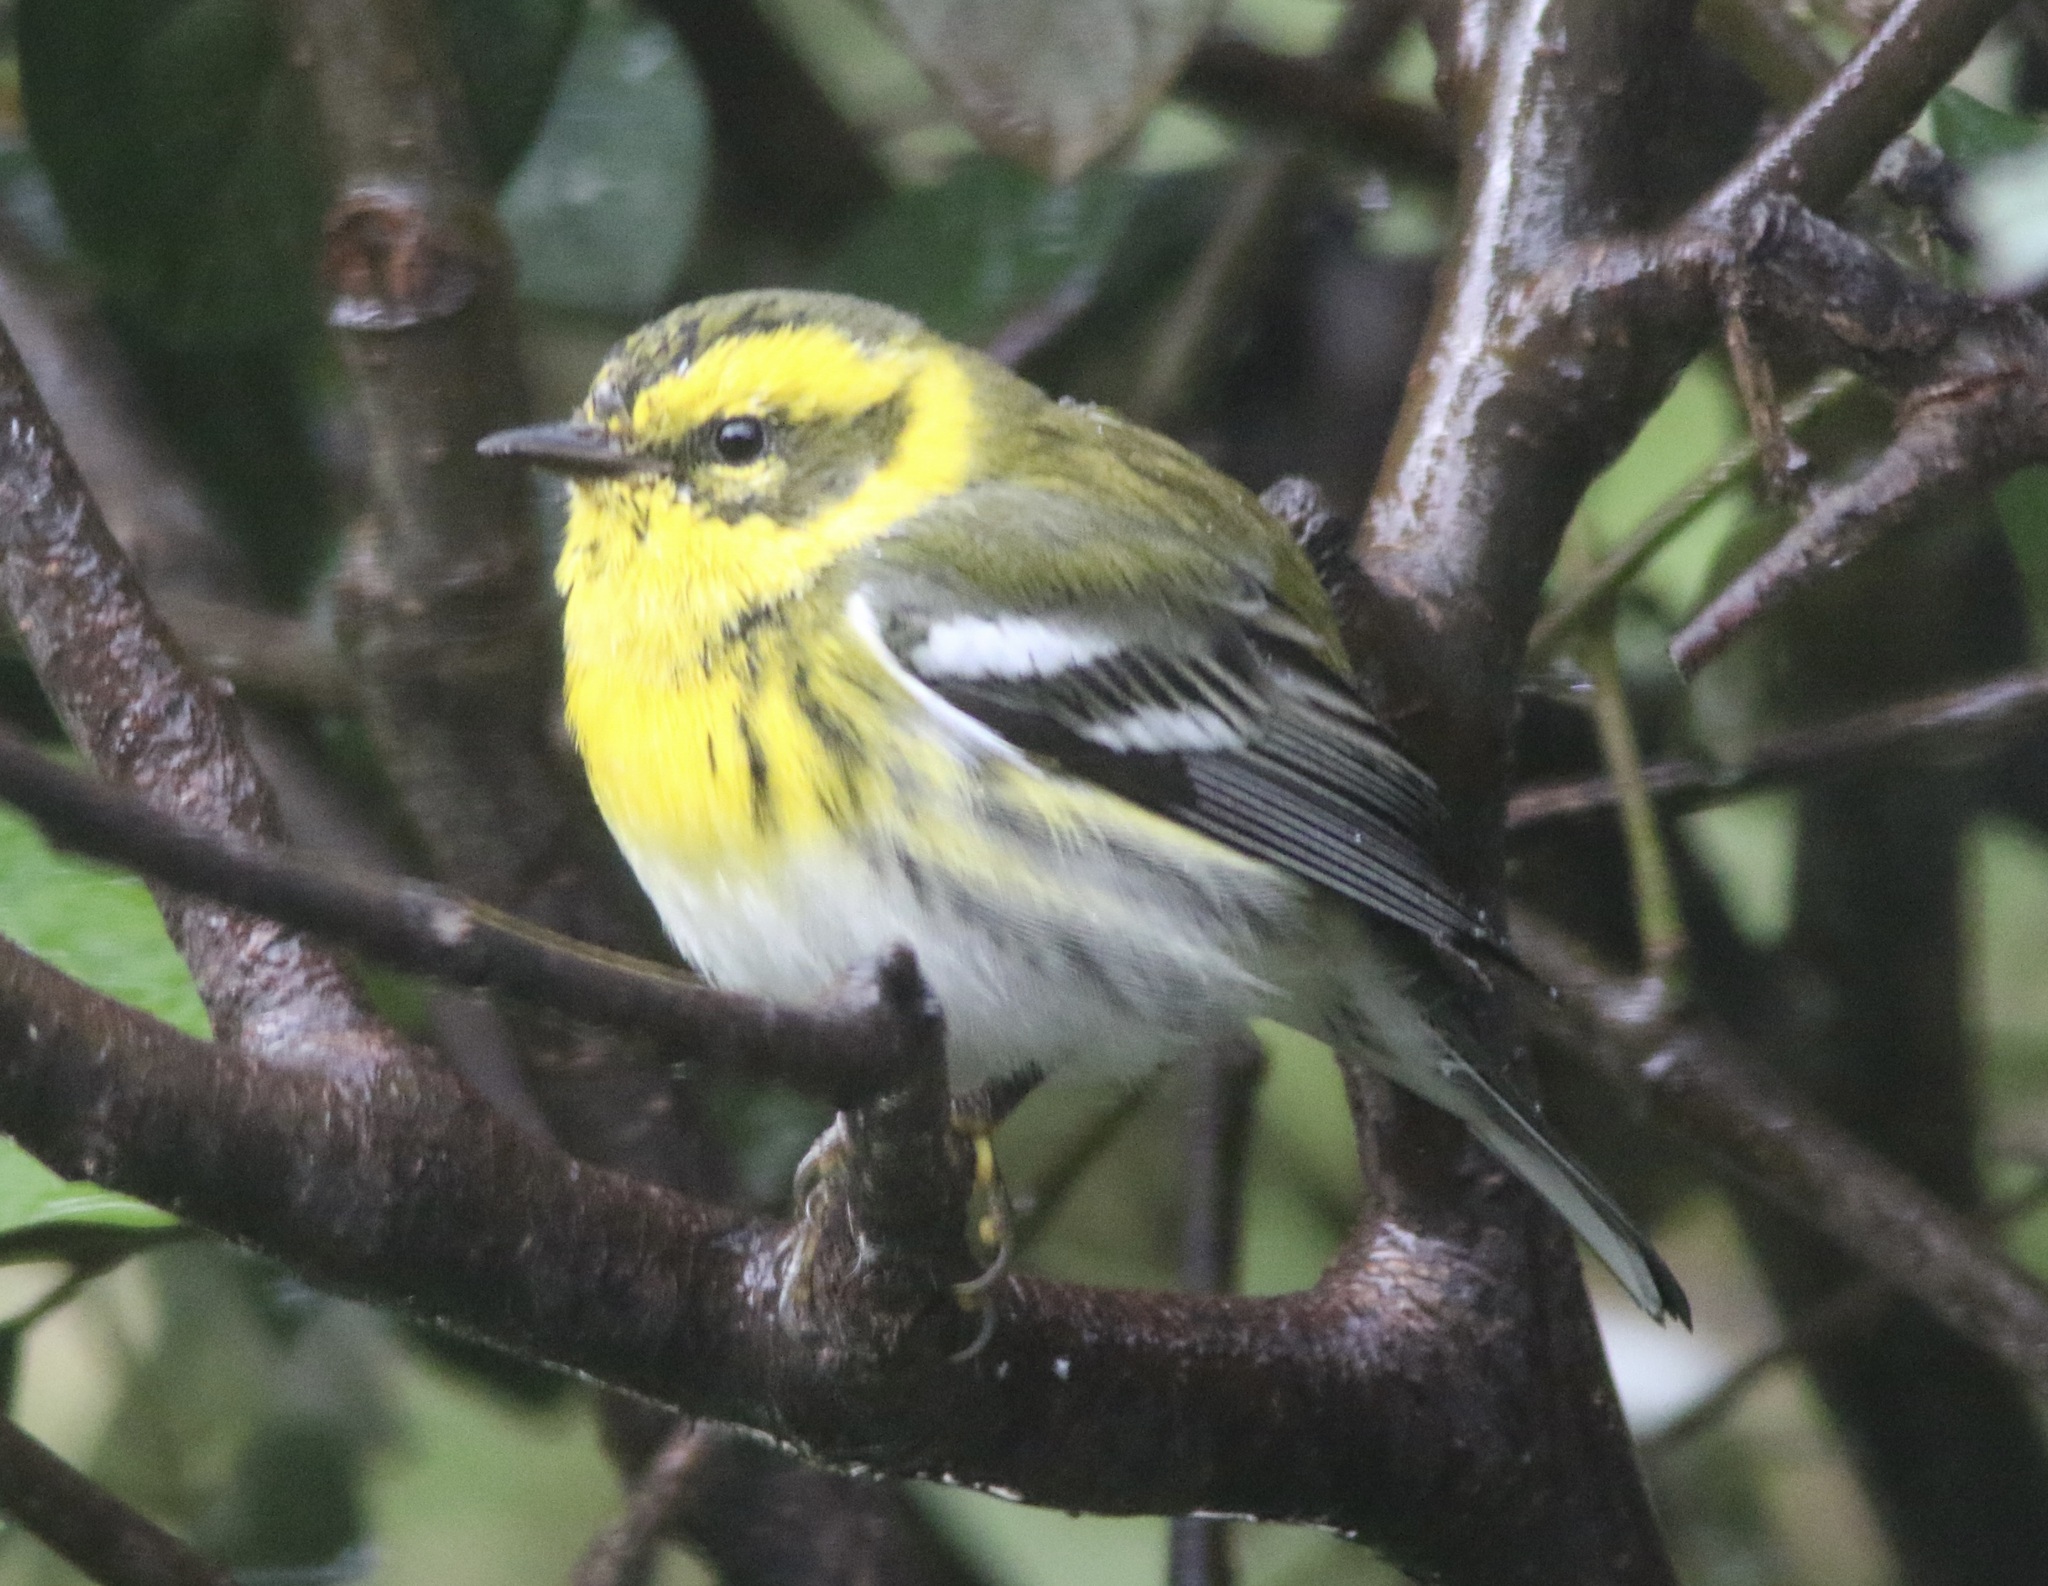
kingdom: Animalia
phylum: Chordata
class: Aves
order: Passeriformes
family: Parulidae
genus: Setophaga
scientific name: Setophaga townsendi
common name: Townsend's warbler
